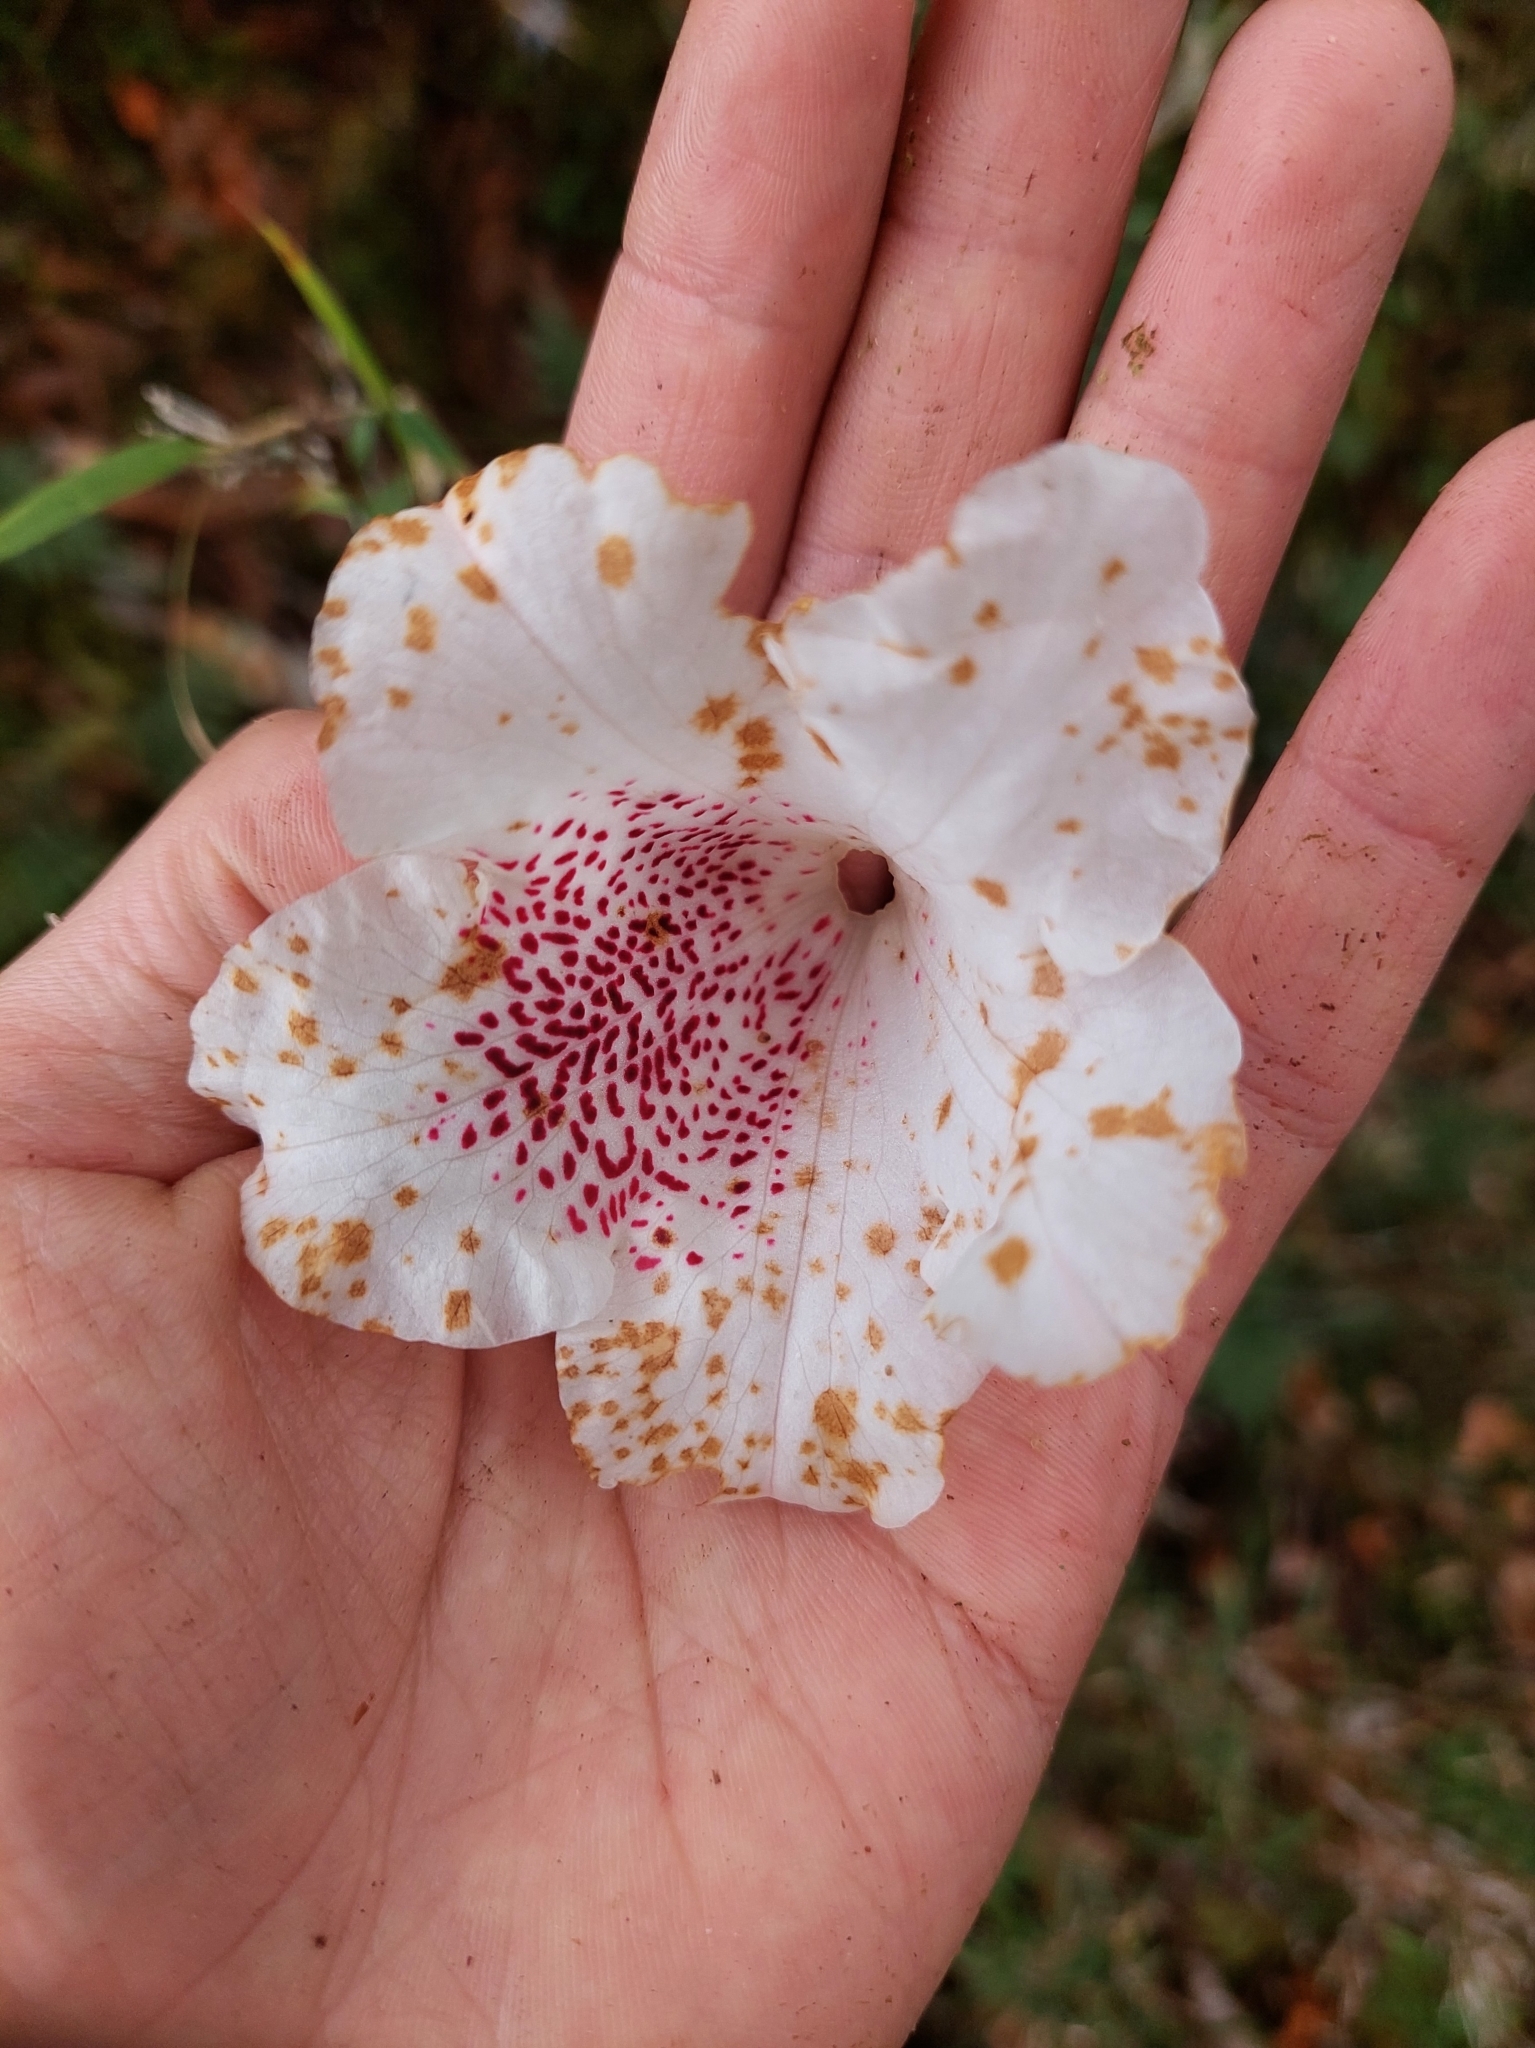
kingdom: Plantae
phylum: Tracheophyta
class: Magnoliopsida
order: Ericales
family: Ericaceae
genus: Rhododendron
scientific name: Rhododendron formosanum
